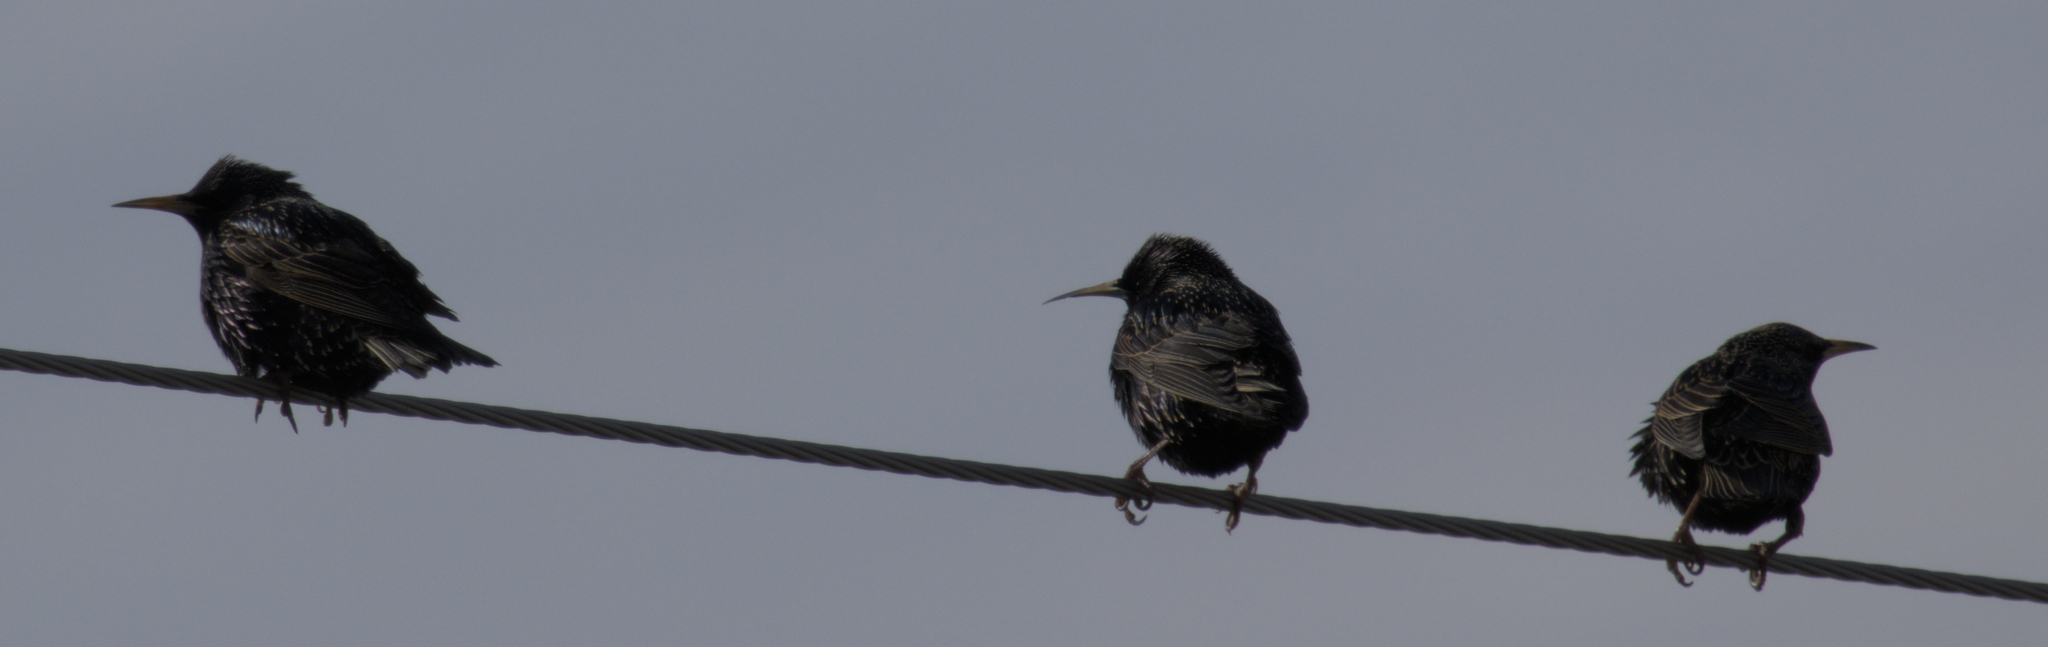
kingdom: Animalia
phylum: Chordata
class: Aves
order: Passeriformes
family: Sturnidae
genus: Sturnus
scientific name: Sturnus vulgaris
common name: Common starling
